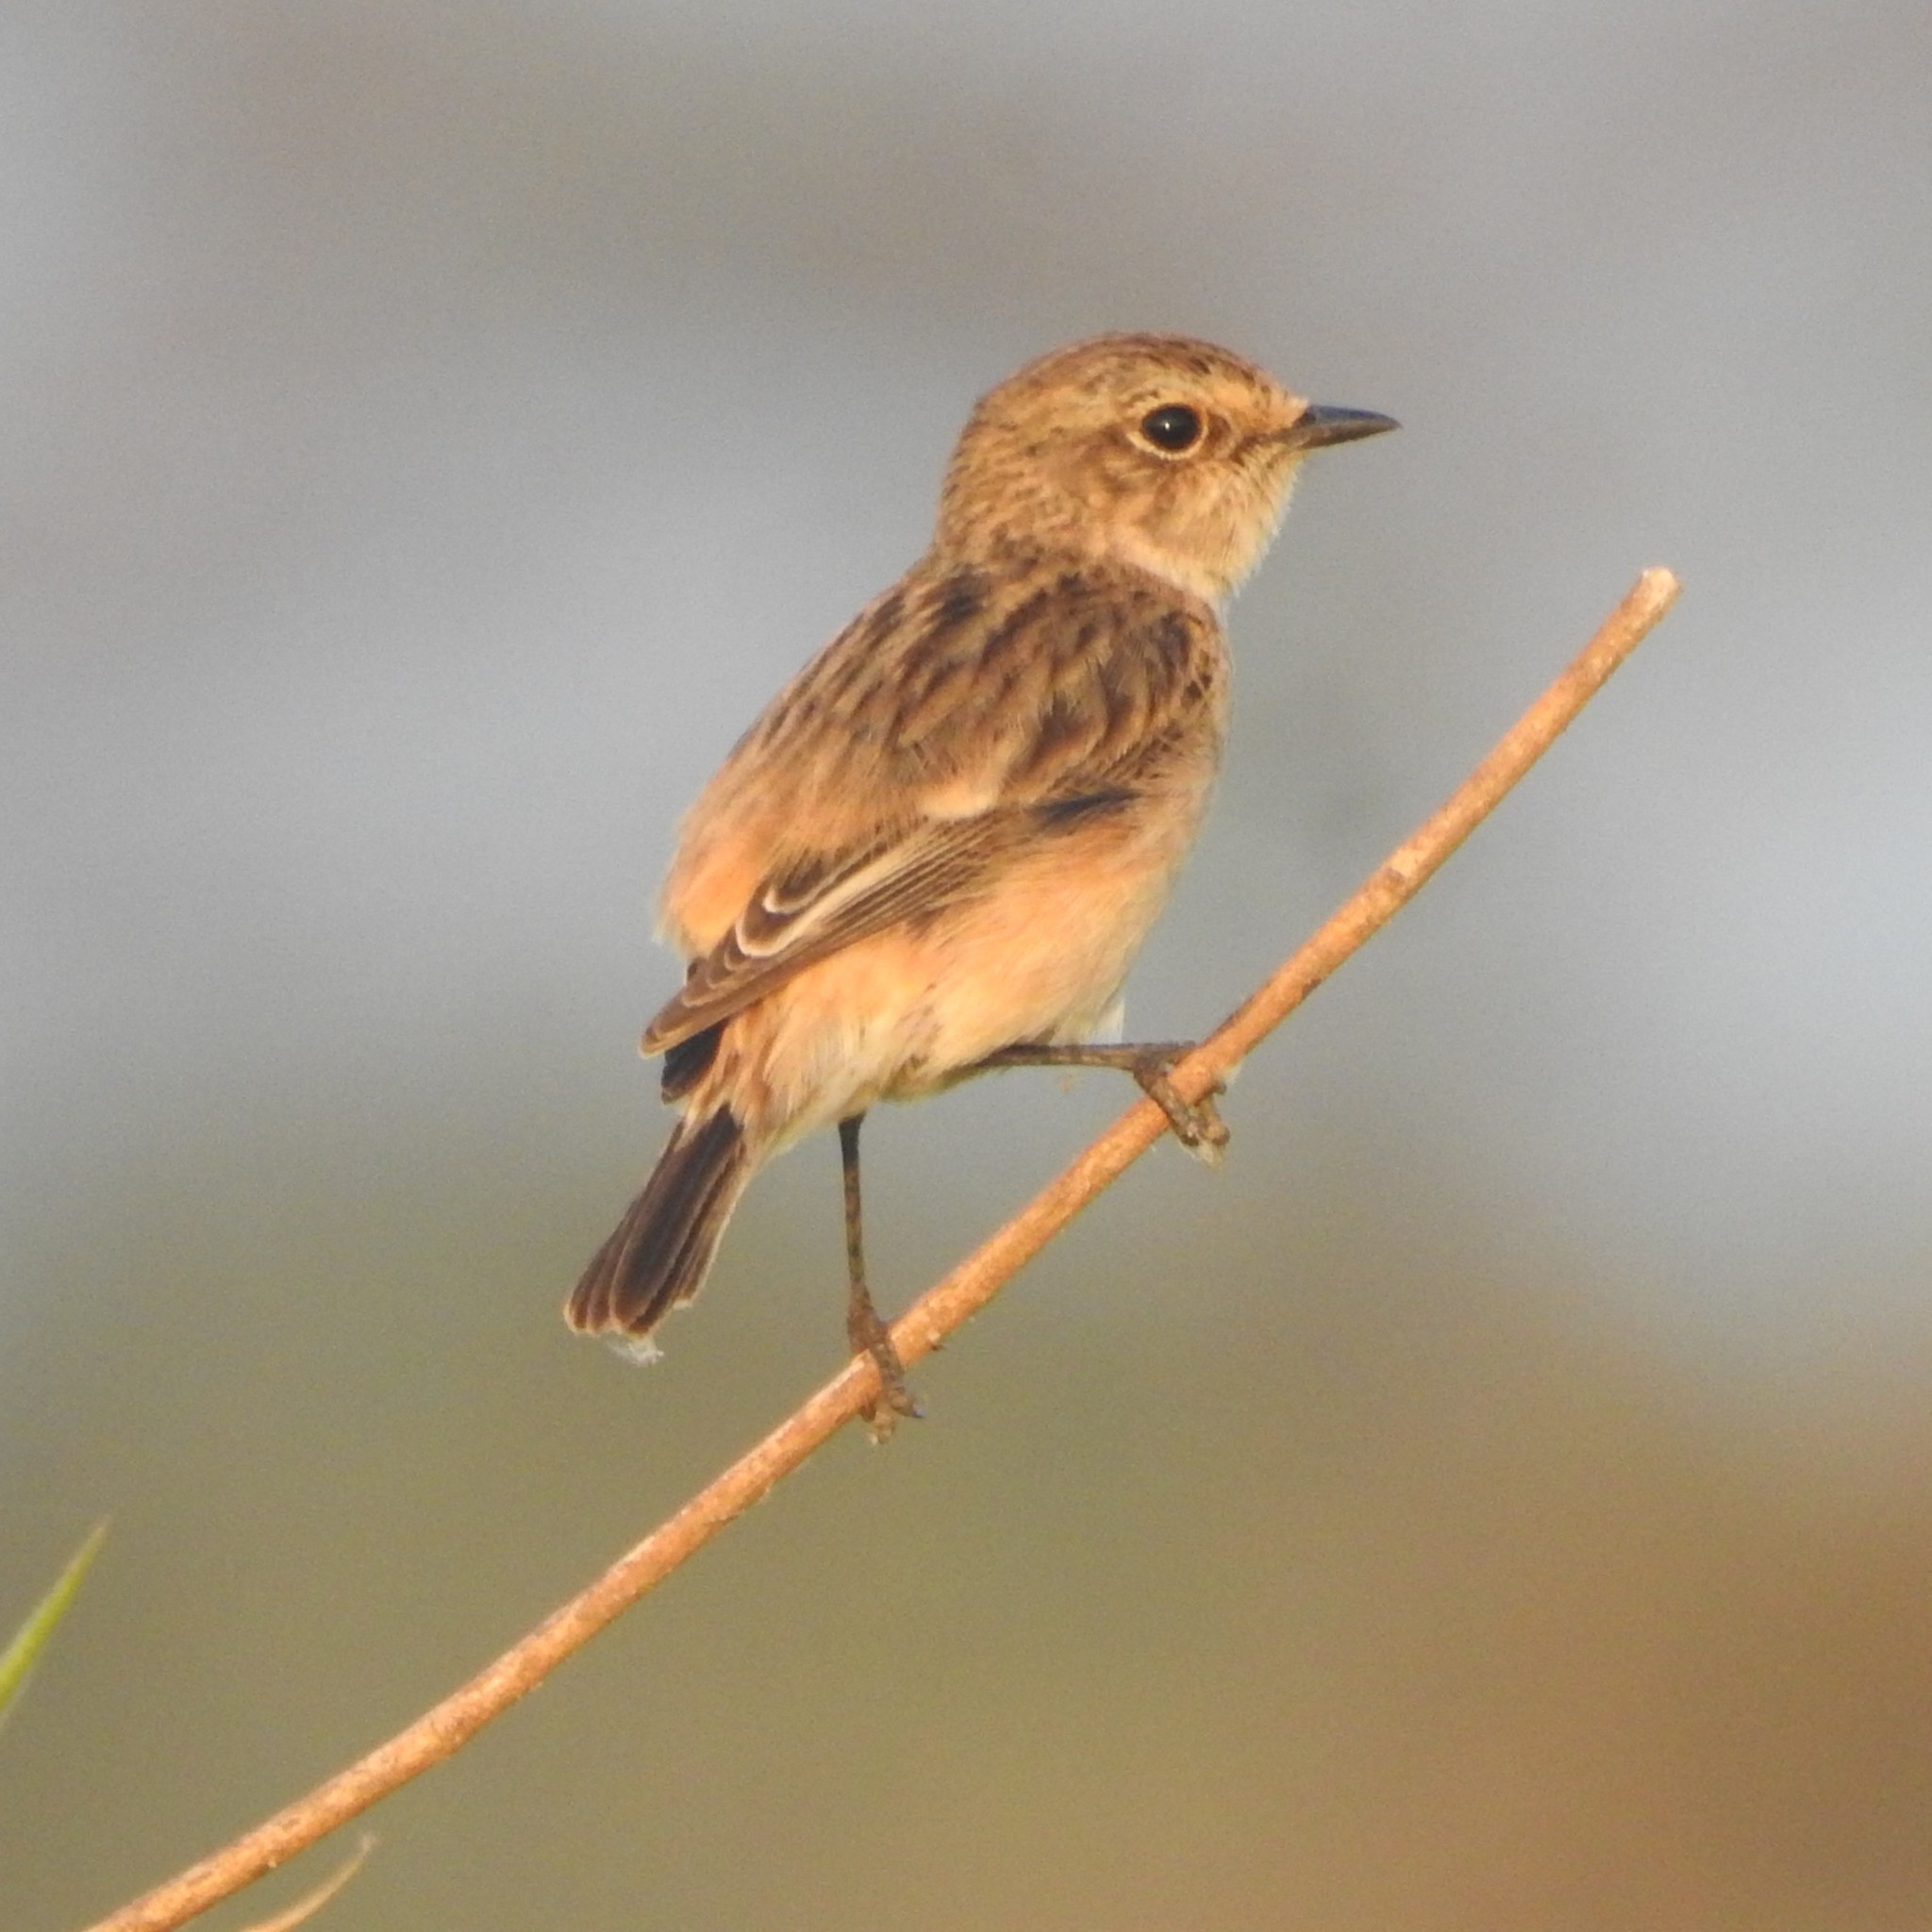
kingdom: Animalia
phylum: Chordata
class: Aves
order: Passeriformes
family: Muscicapidae
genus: Saxicola
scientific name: Saxicola maurus
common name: Siberian stonechat
